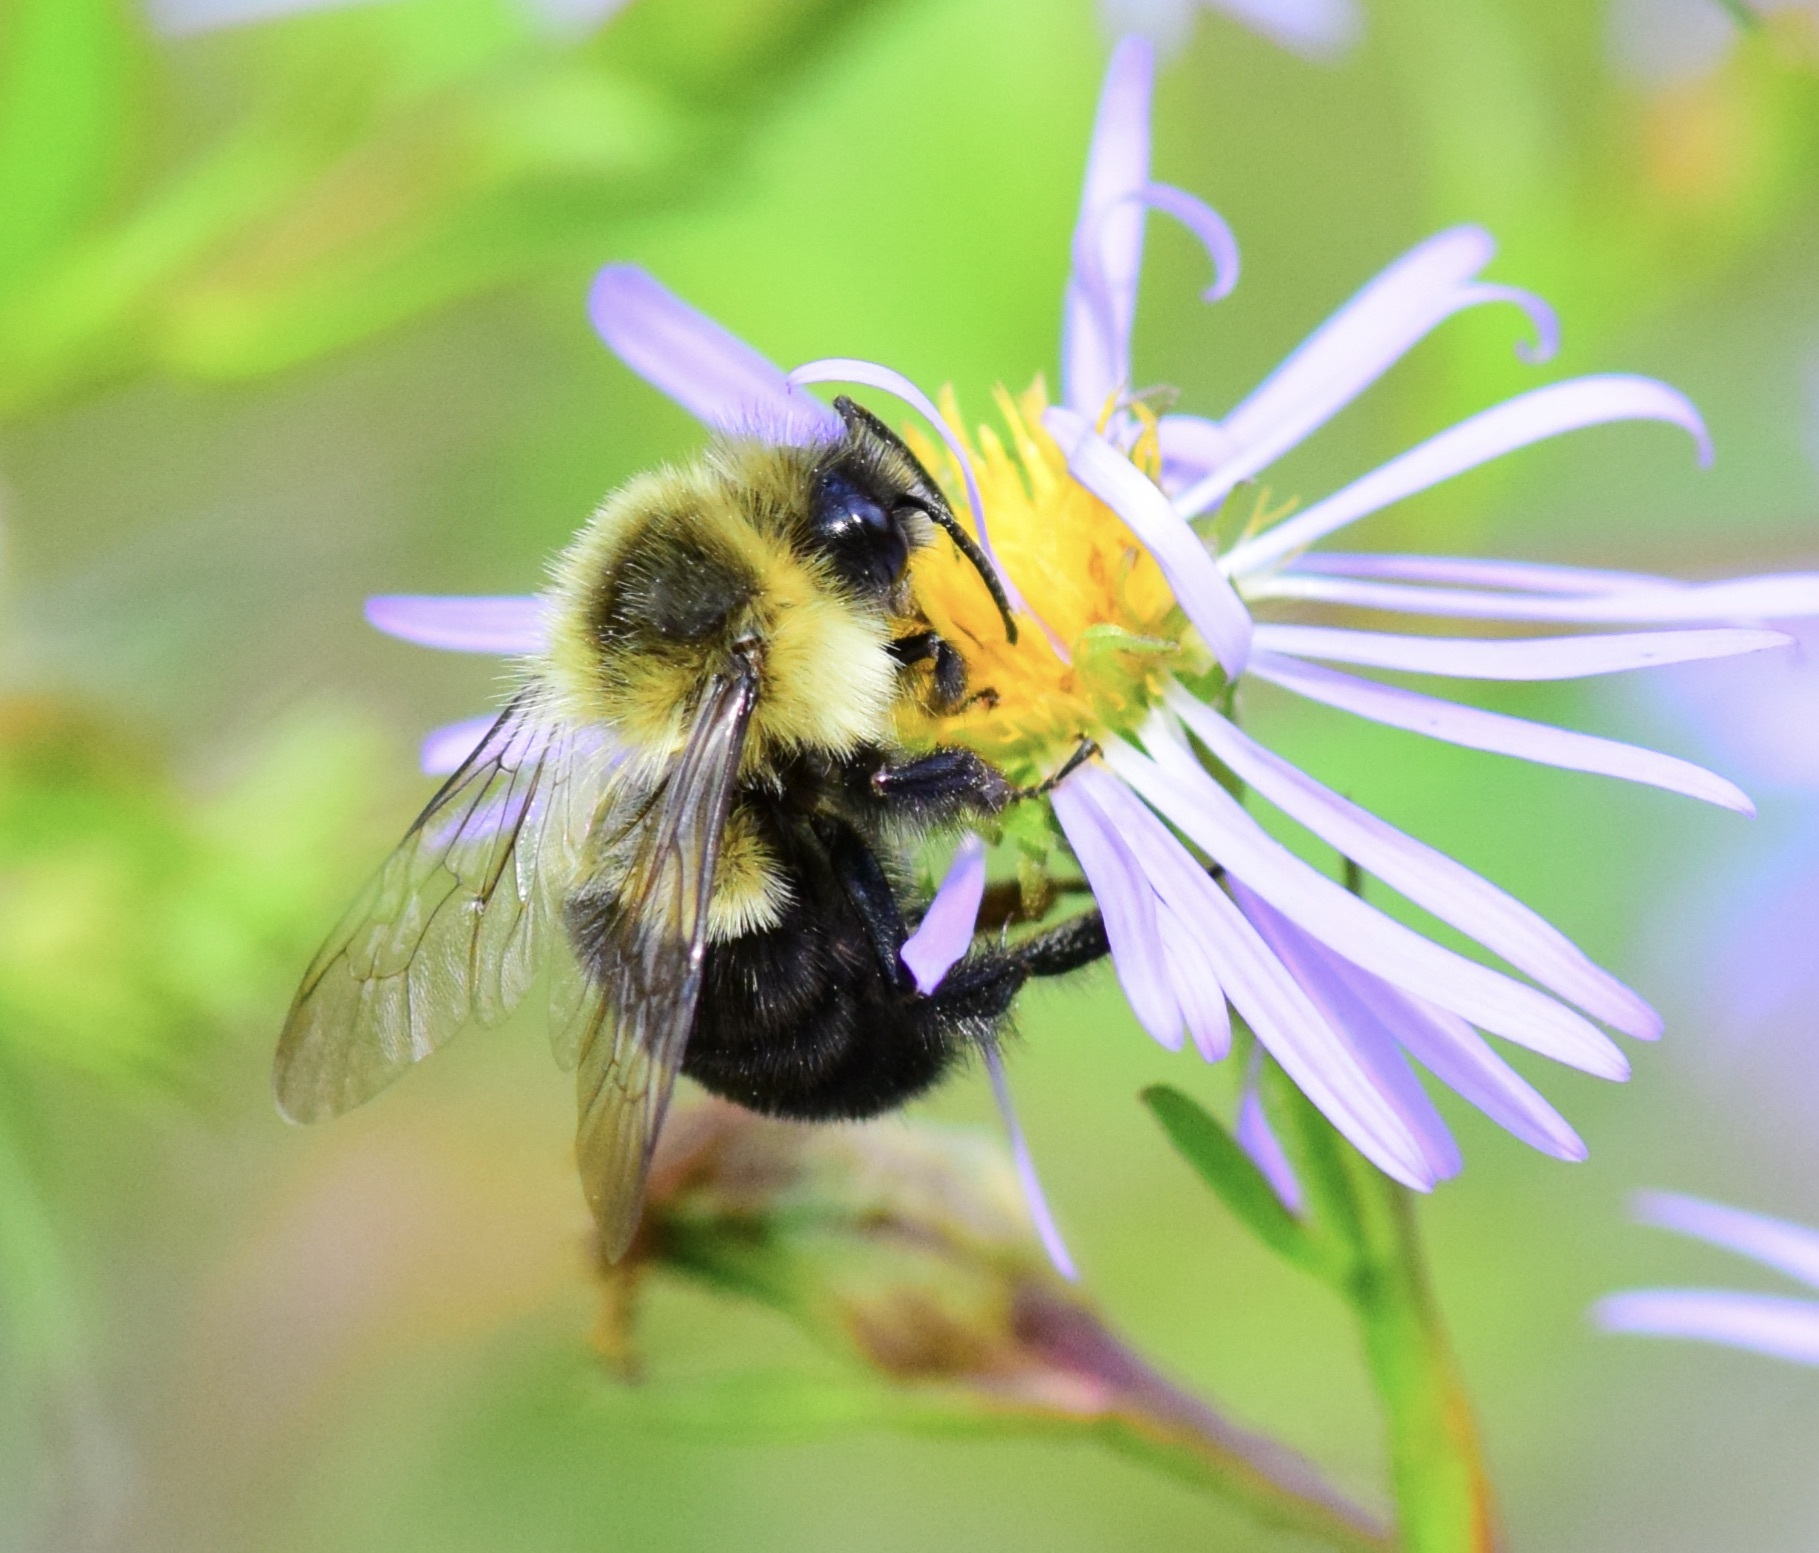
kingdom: Animalia
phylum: Arthropoda
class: Insecta
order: Hymenoptera
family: Apidae
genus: Bombus
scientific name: Bombus impatiens
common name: Common eastern bumble bee
